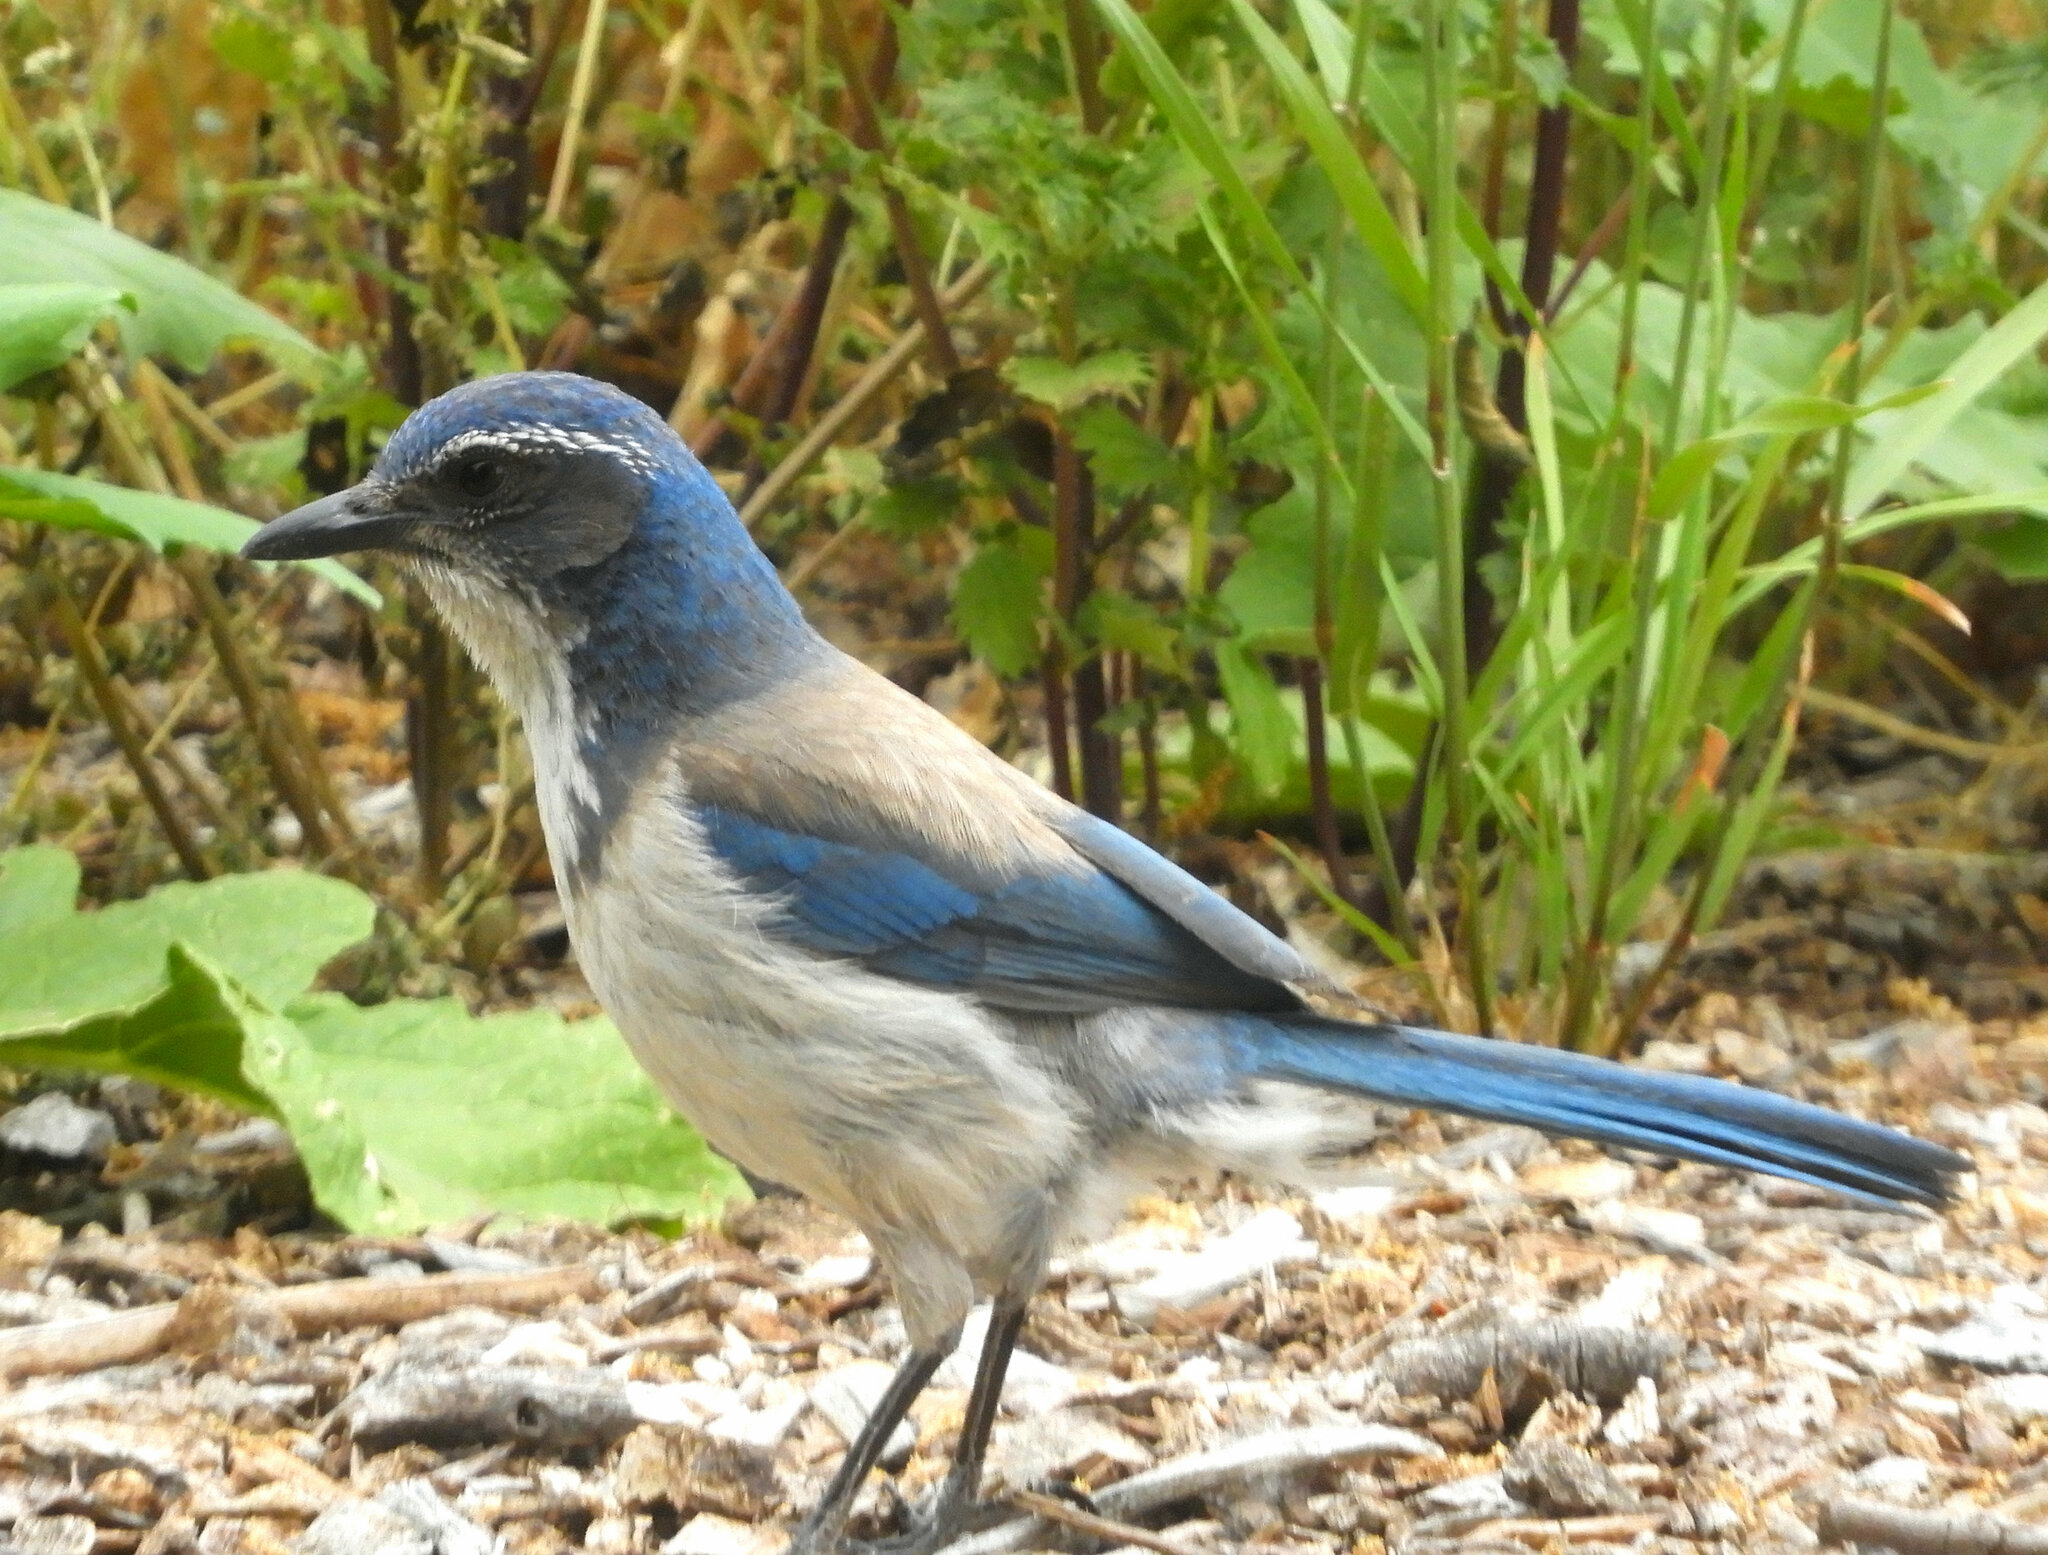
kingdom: Animalia
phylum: Chordata
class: Aves
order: Passeriformes
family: Corvidae
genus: Aphelocoma
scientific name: Aphelocoma californica
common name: California scrub-jay
